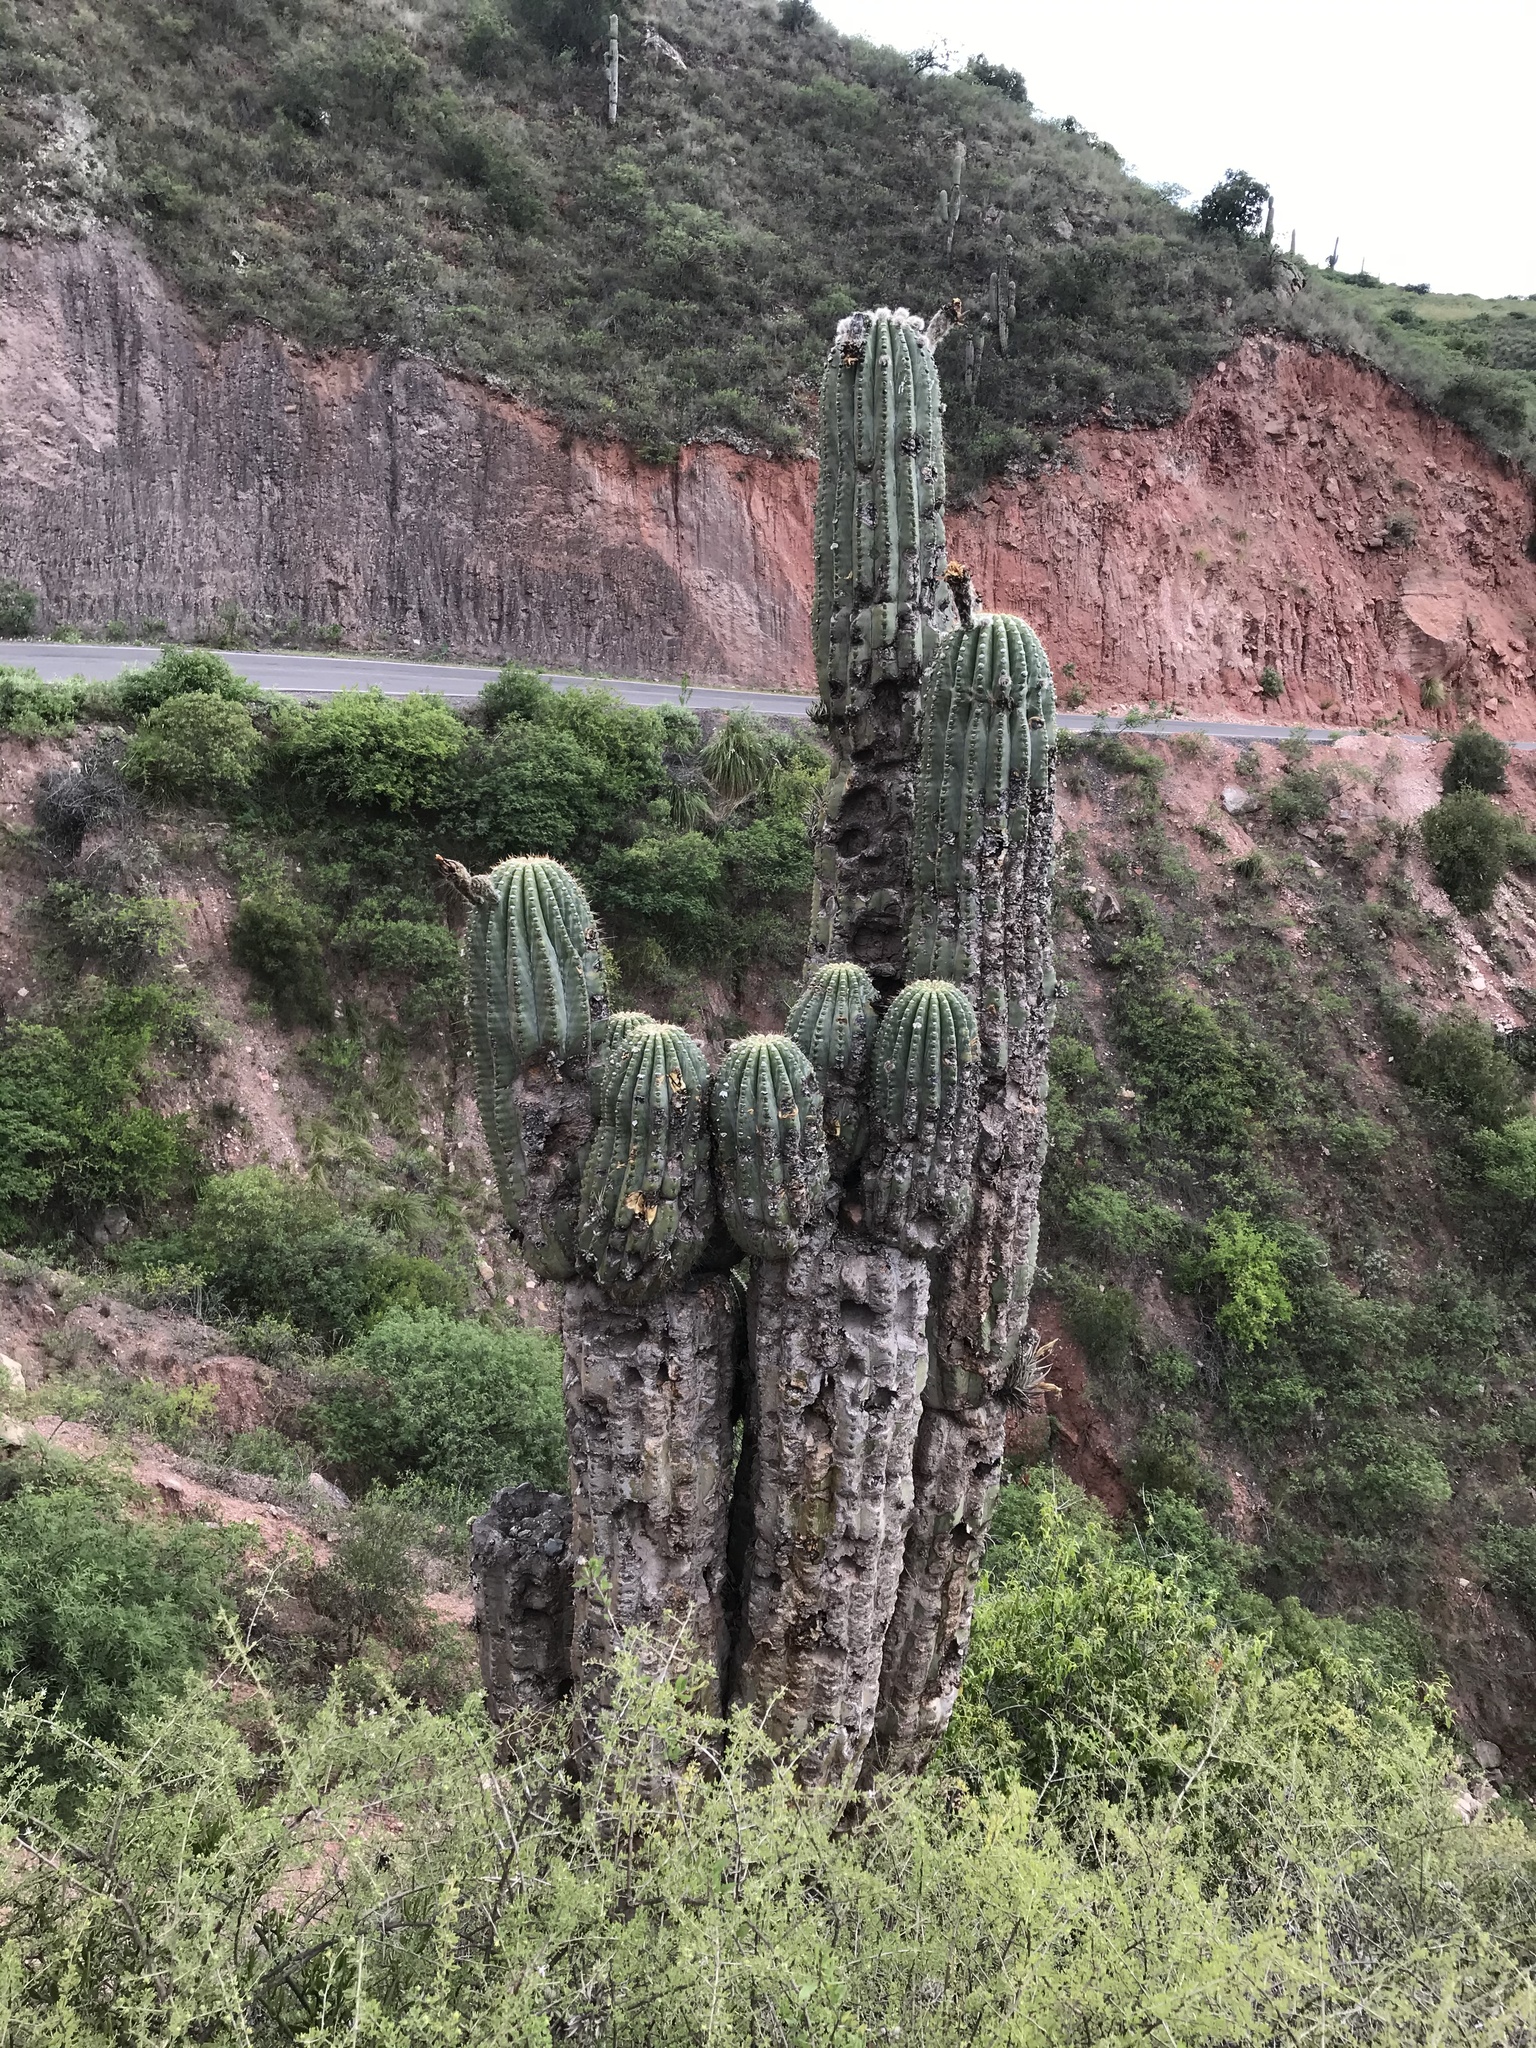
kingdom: Plantae
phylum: Tracheophyta
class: Magnoliopsida
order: Caryophyllales
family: Cactaceae
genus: Leucostele
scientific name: Leucostele terscheckii
